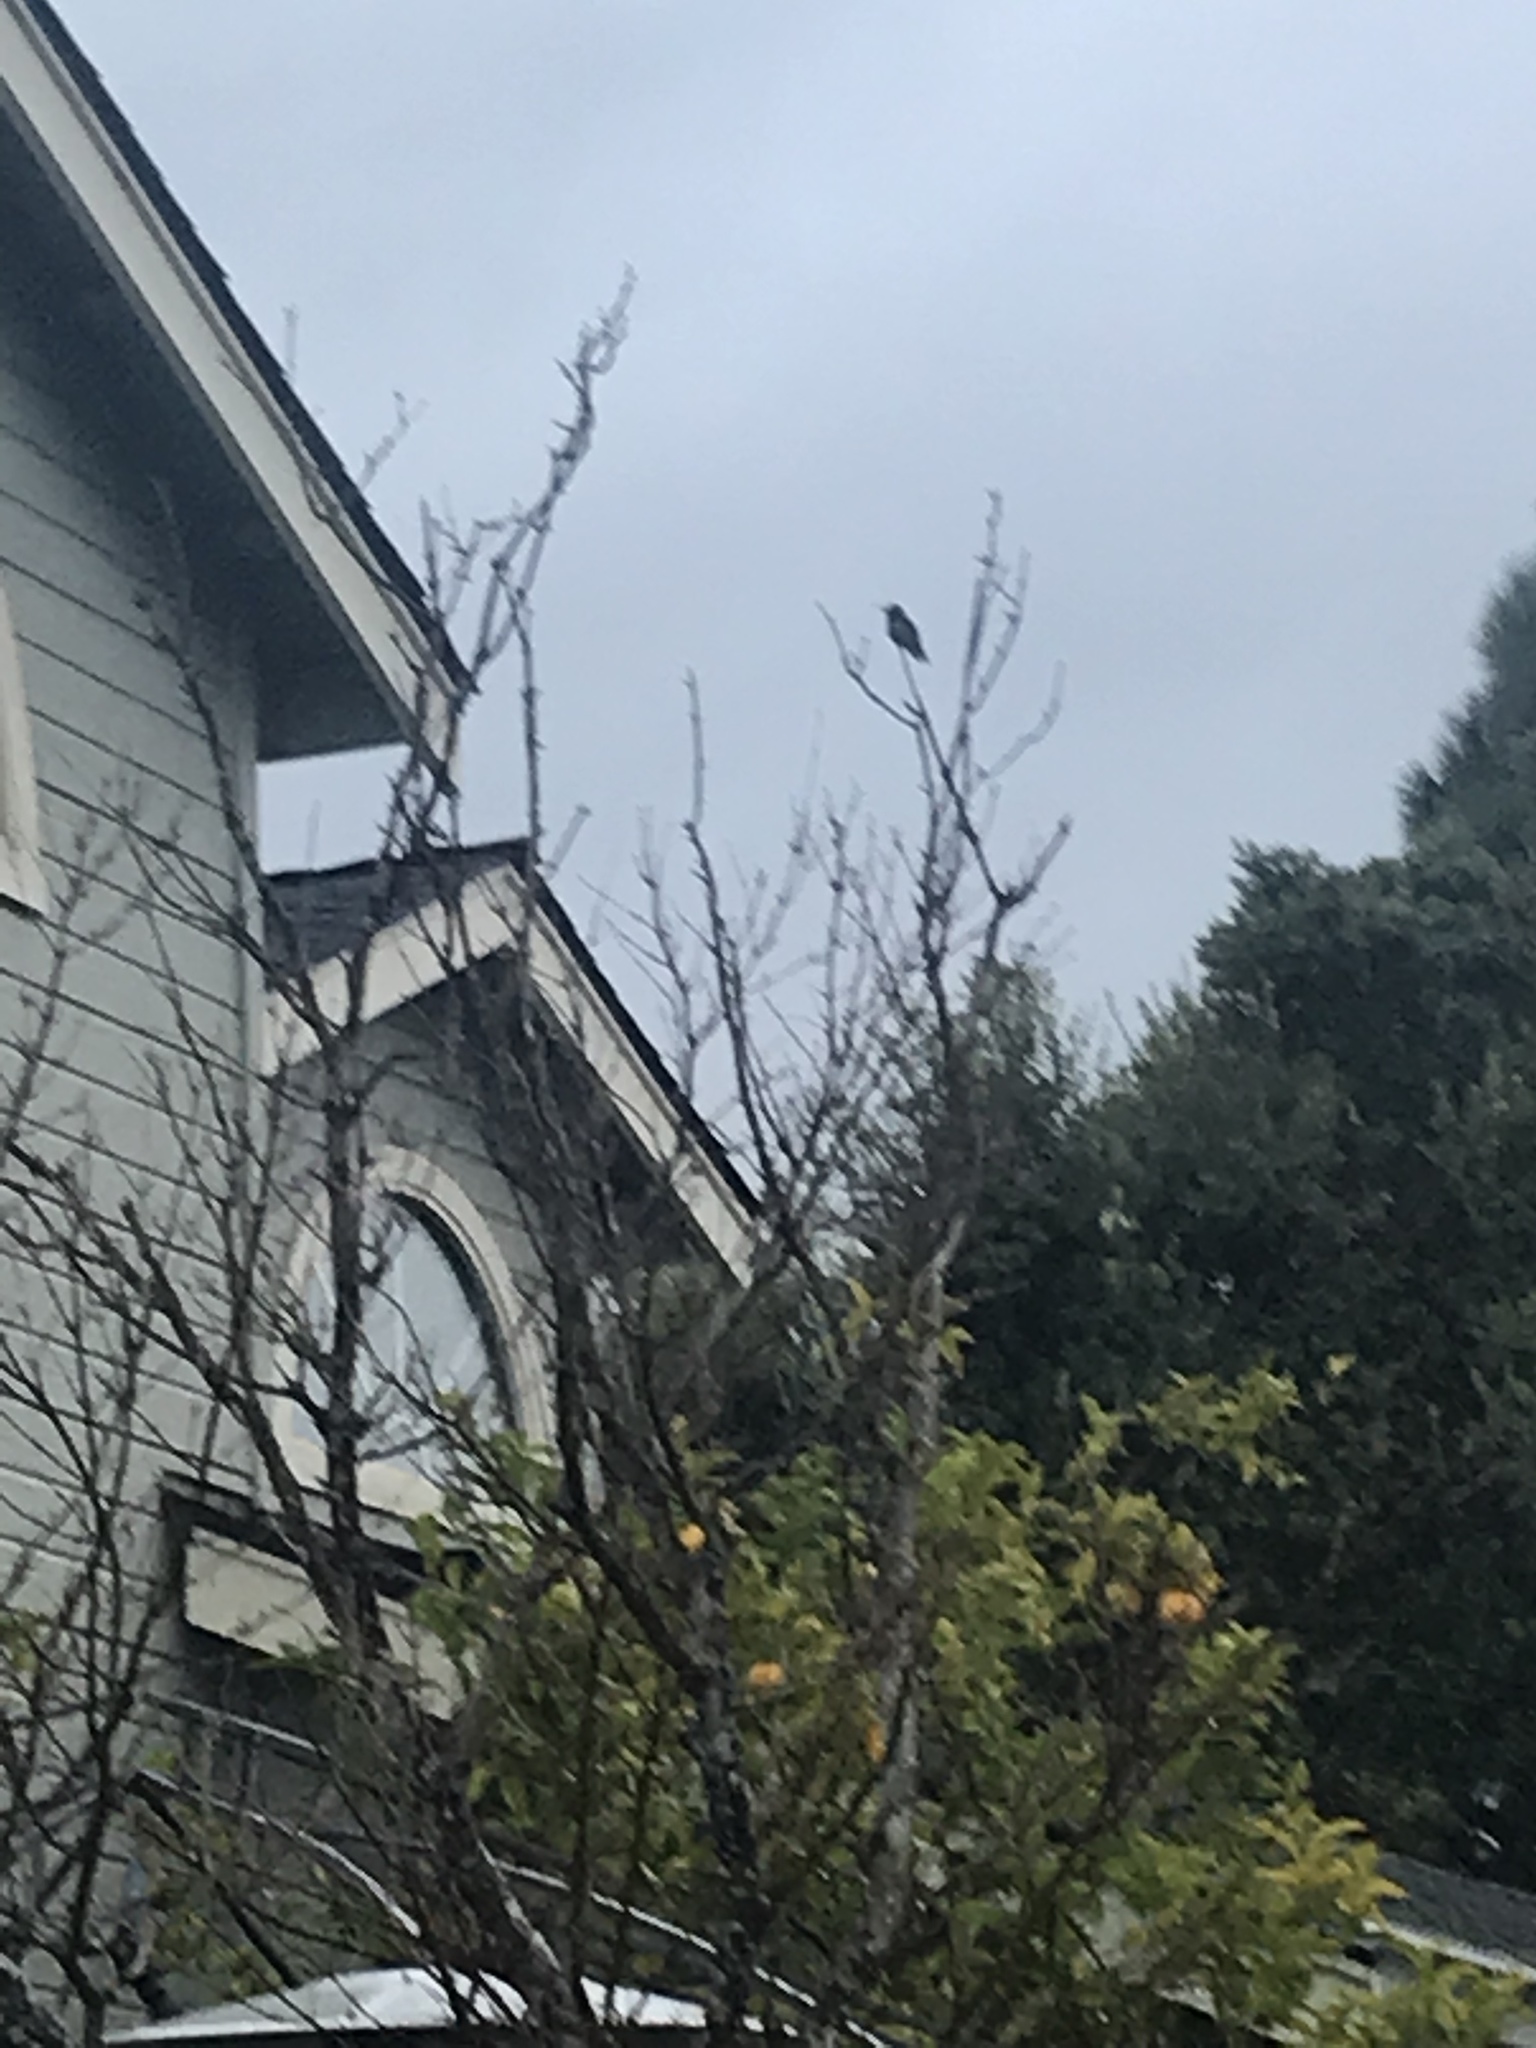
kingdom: Animalia
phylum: Chordata
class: Aves
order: Apodiformes
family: Trochilidae
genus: Calypte
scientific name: Calypte anna
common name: Anna's hummingbird
